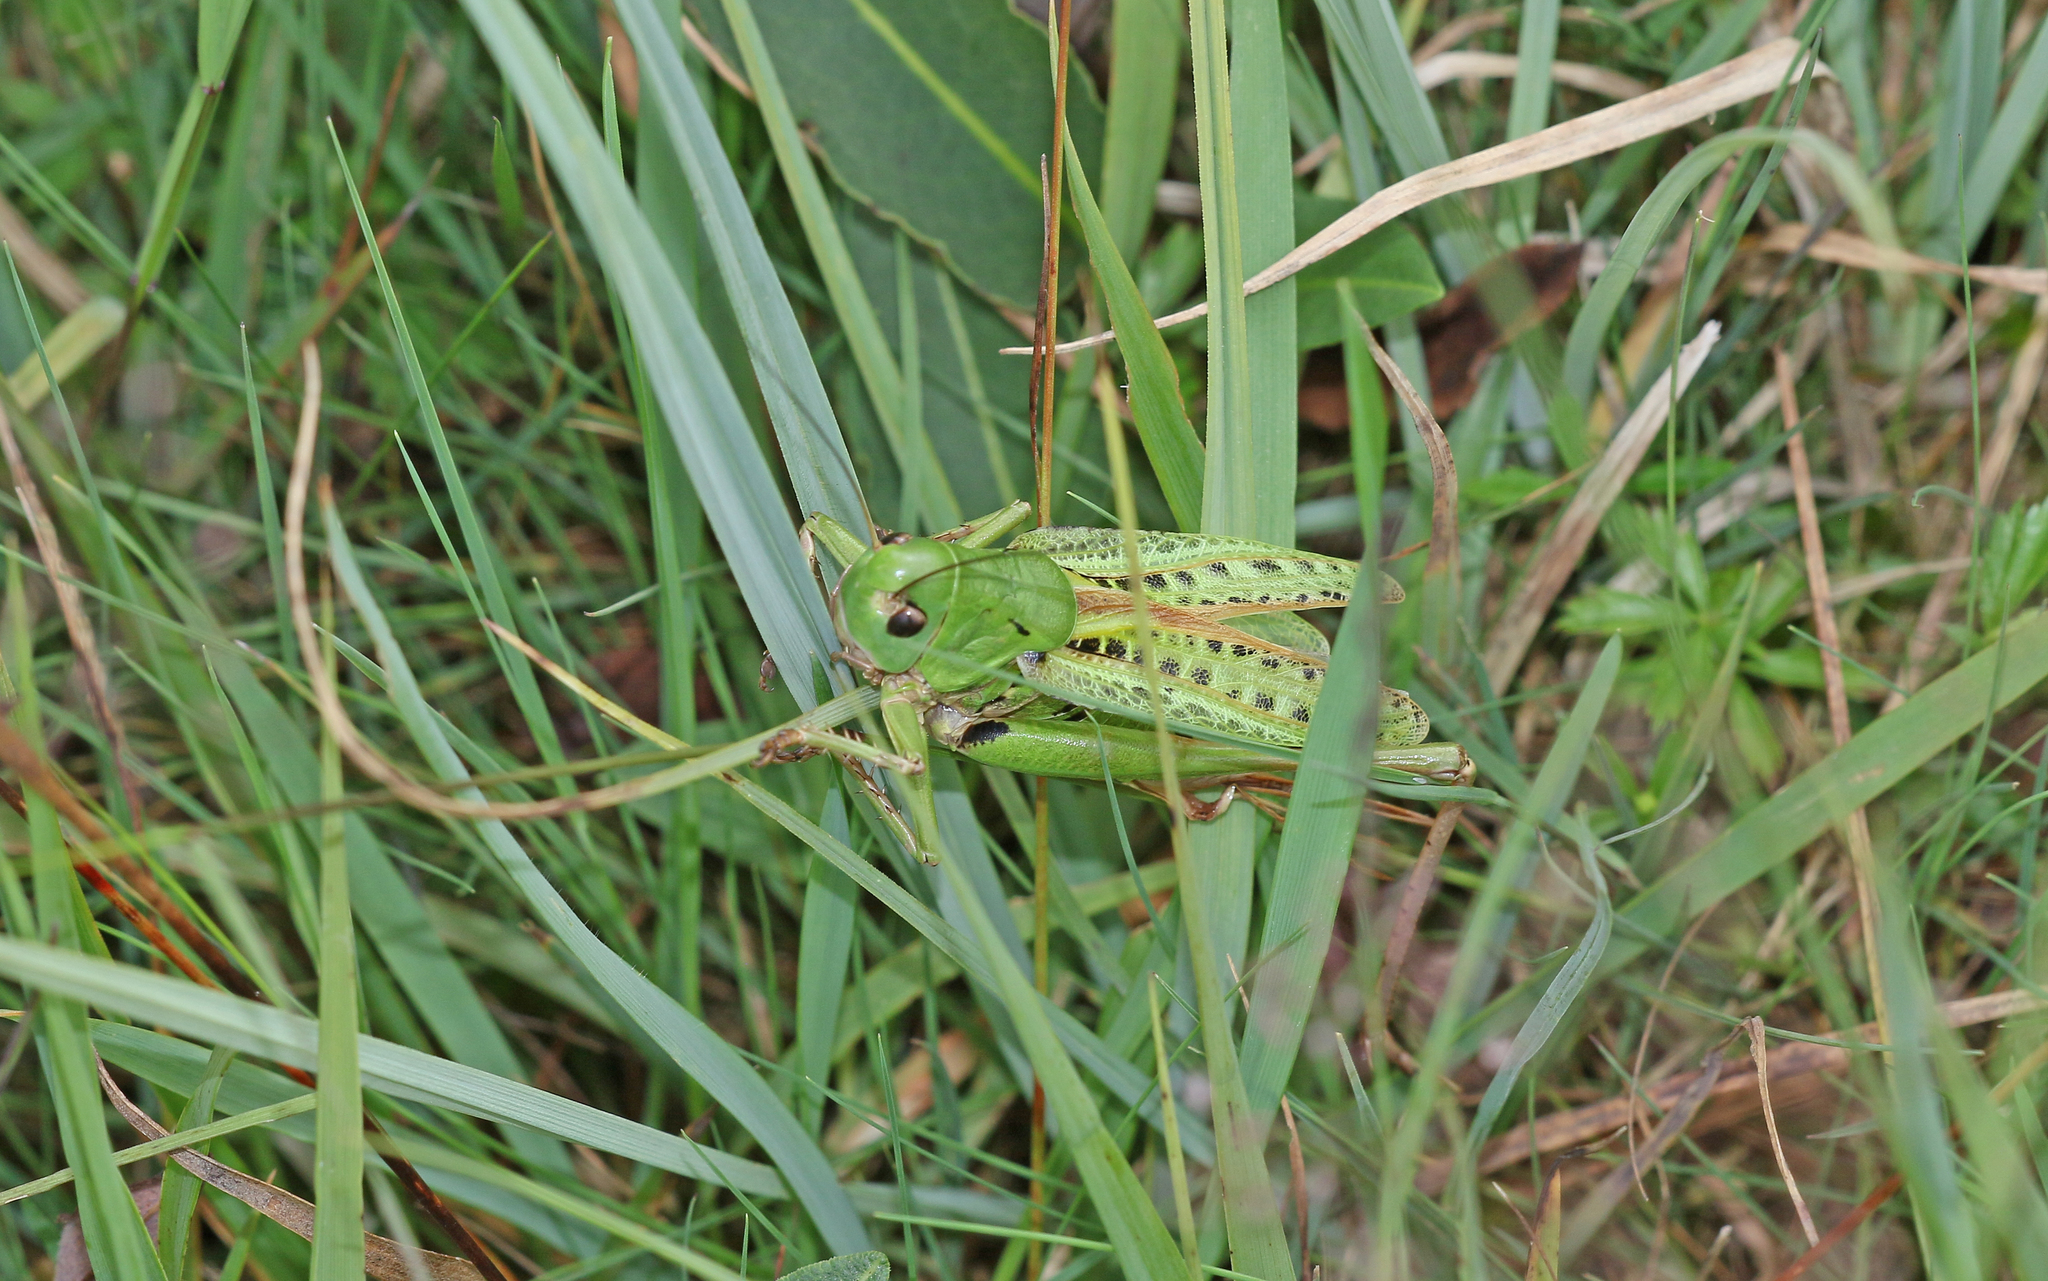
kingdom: Animalia
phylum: Arthropoda
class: Insecta
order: Orthoptera
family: Tettigoniidae
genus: Decticus
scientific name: Decticus verrucivorus
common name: Wart-biter
